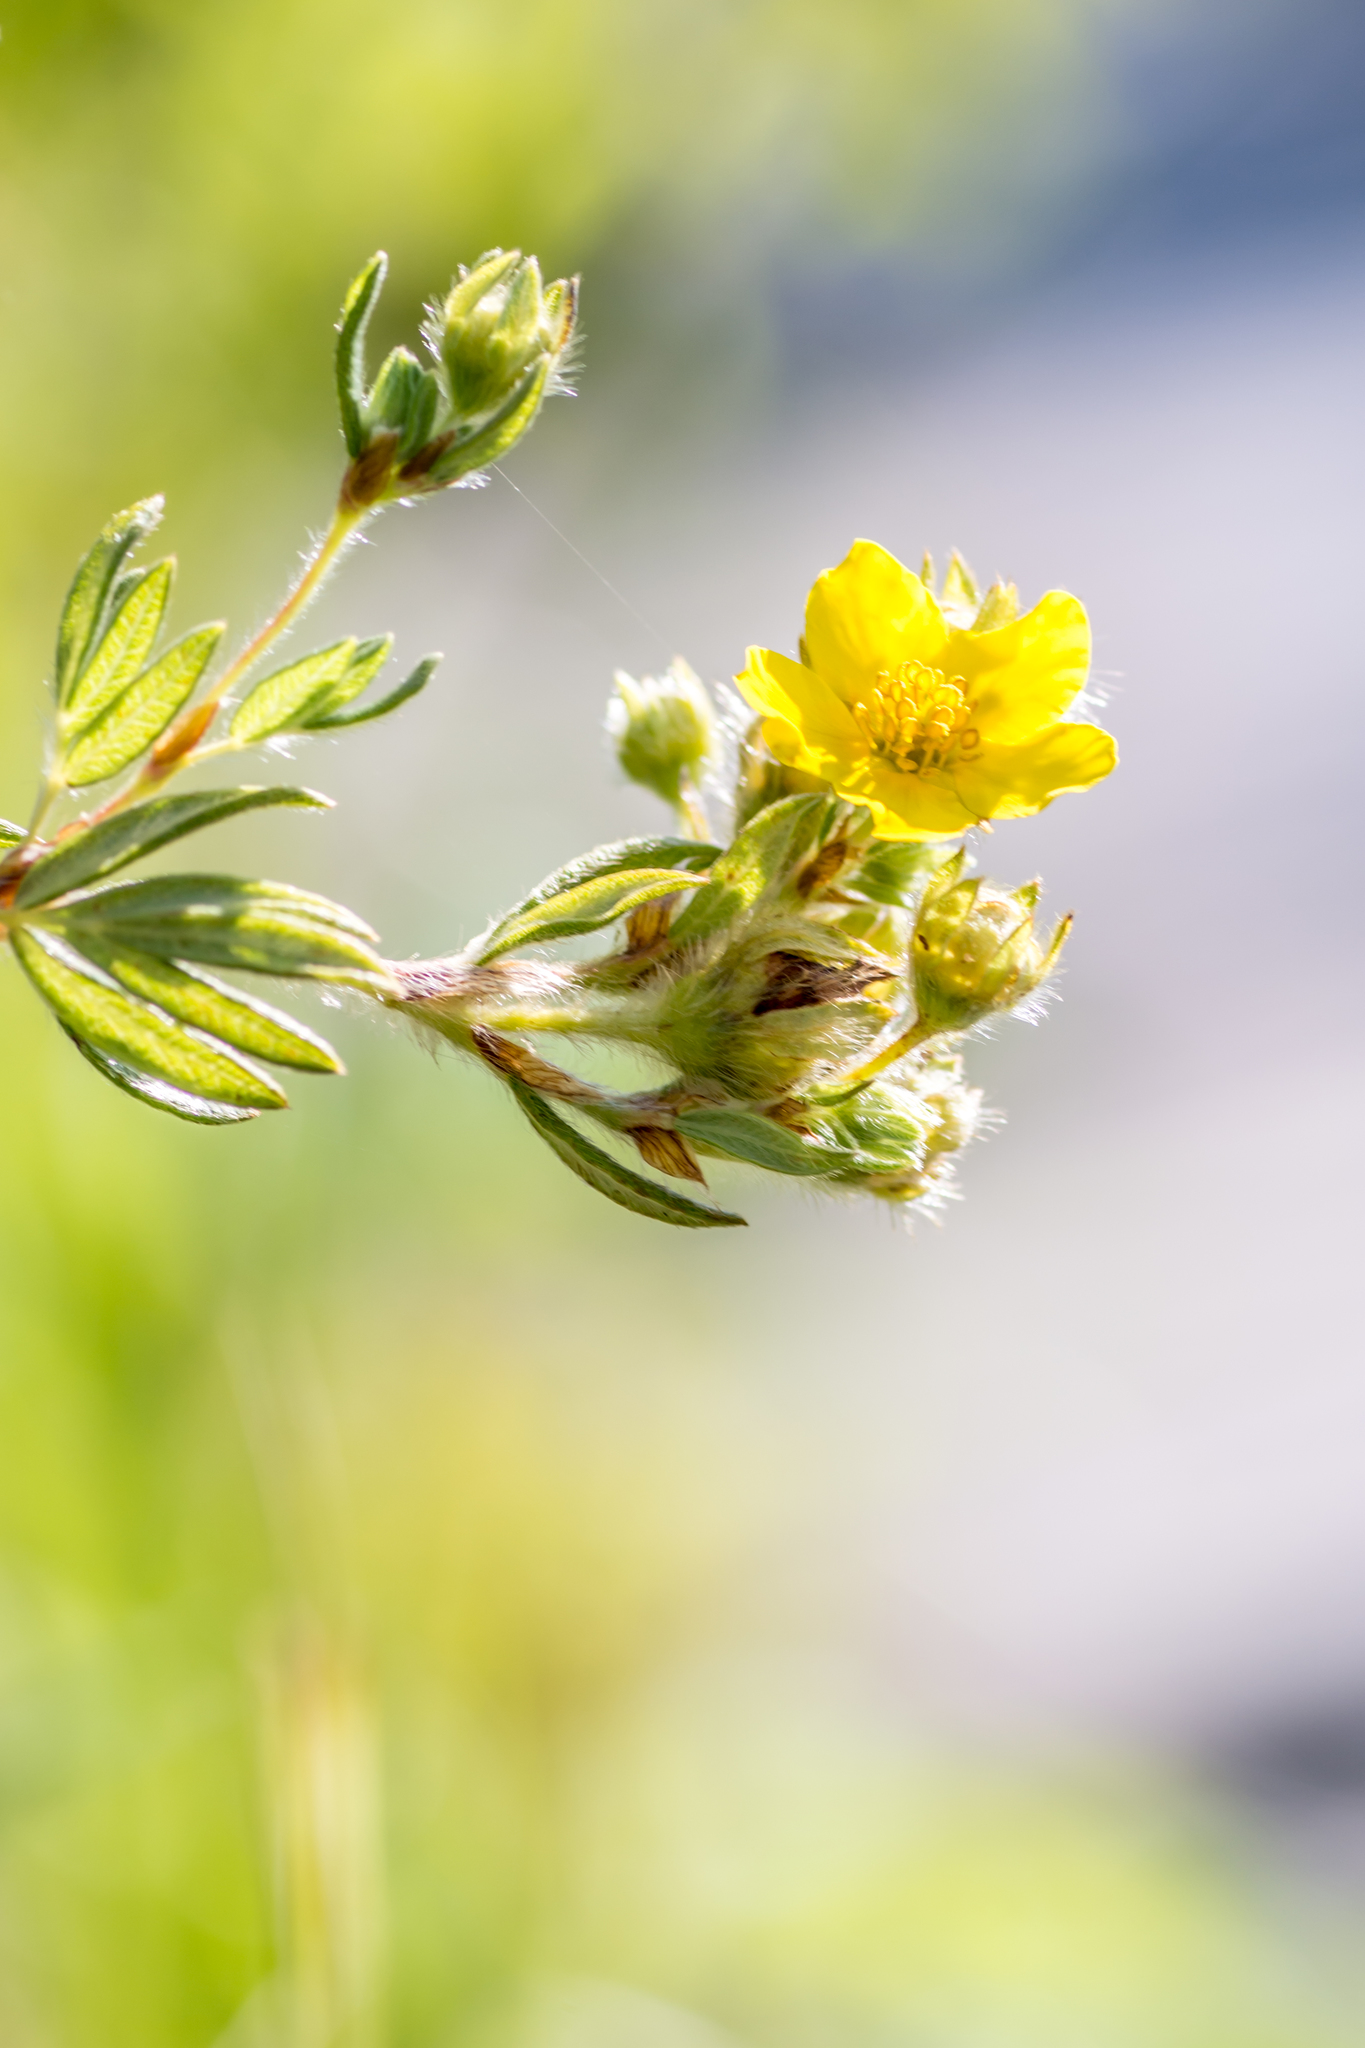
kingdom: Plantae
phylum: Tracheophyta
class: Magnoliopsida
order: Rosales
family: Rosaceae
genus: Dasiphora
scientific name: Dasiphora fruticosa
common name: Shrubby cinquefoil
